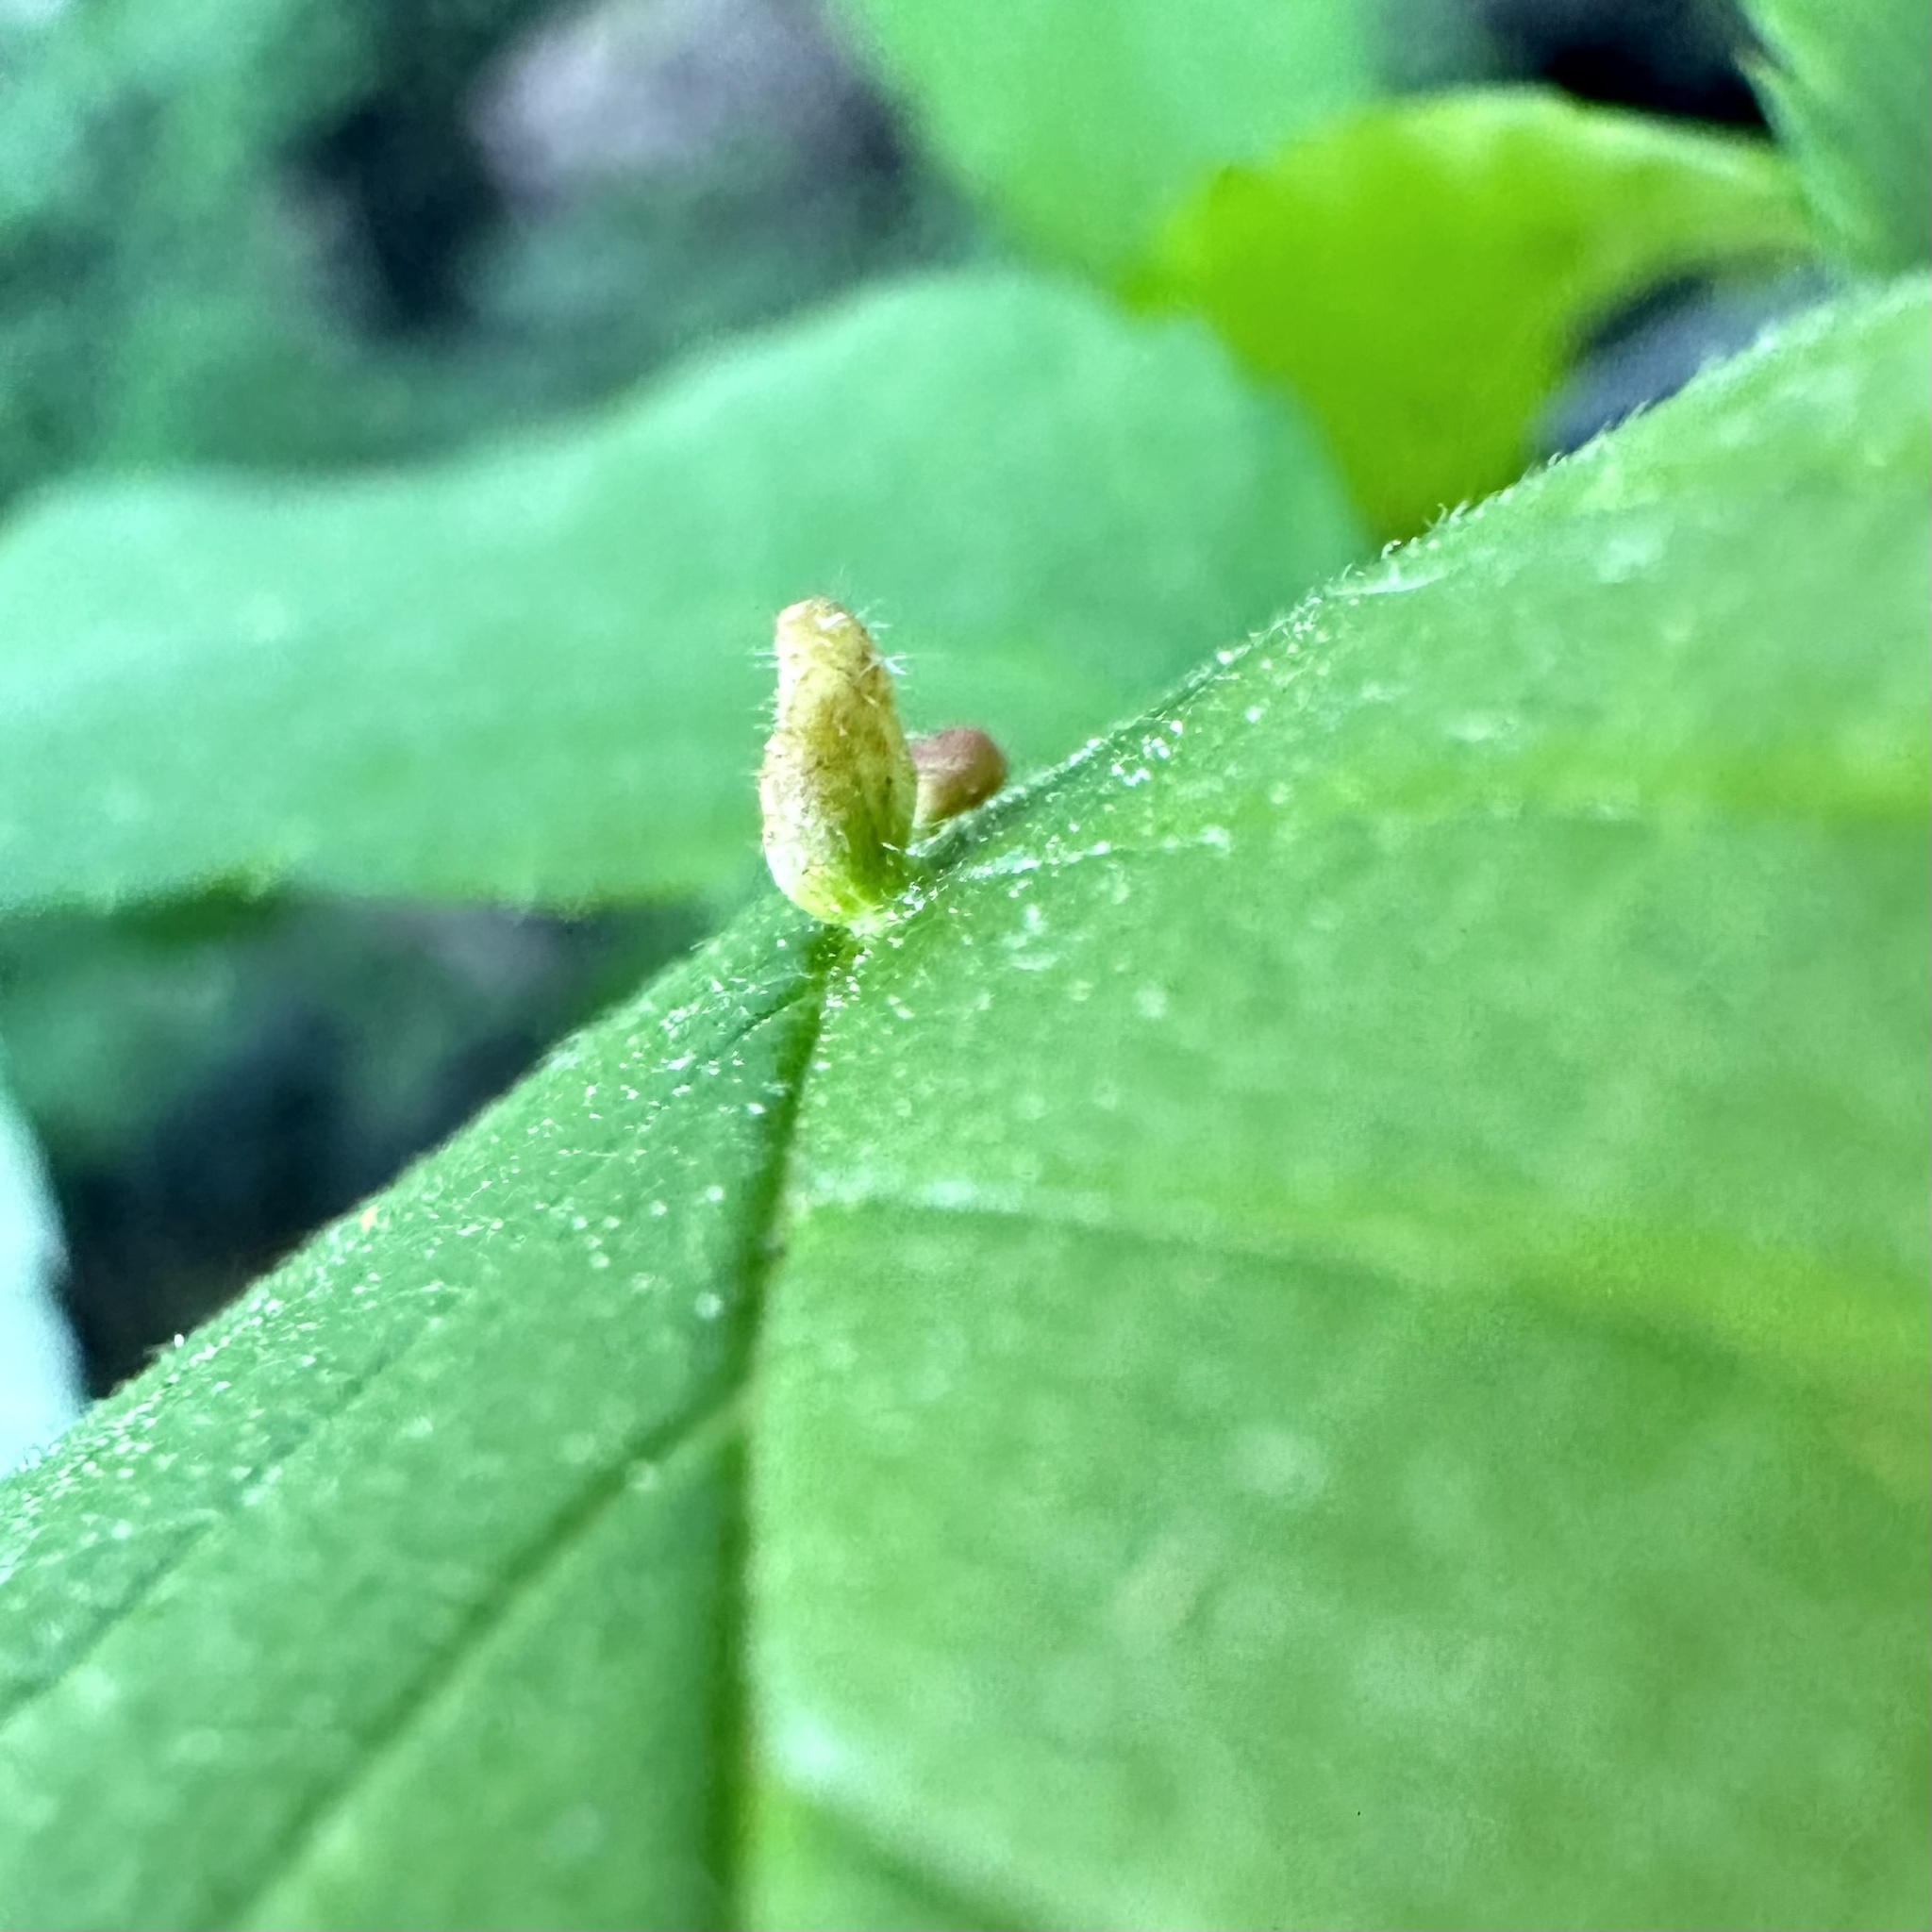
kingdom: Animalia
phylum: Arthropoda
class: Arachnida
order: Trombidiformes
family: Eriophyidae
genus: Aceria
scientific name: Aceria
